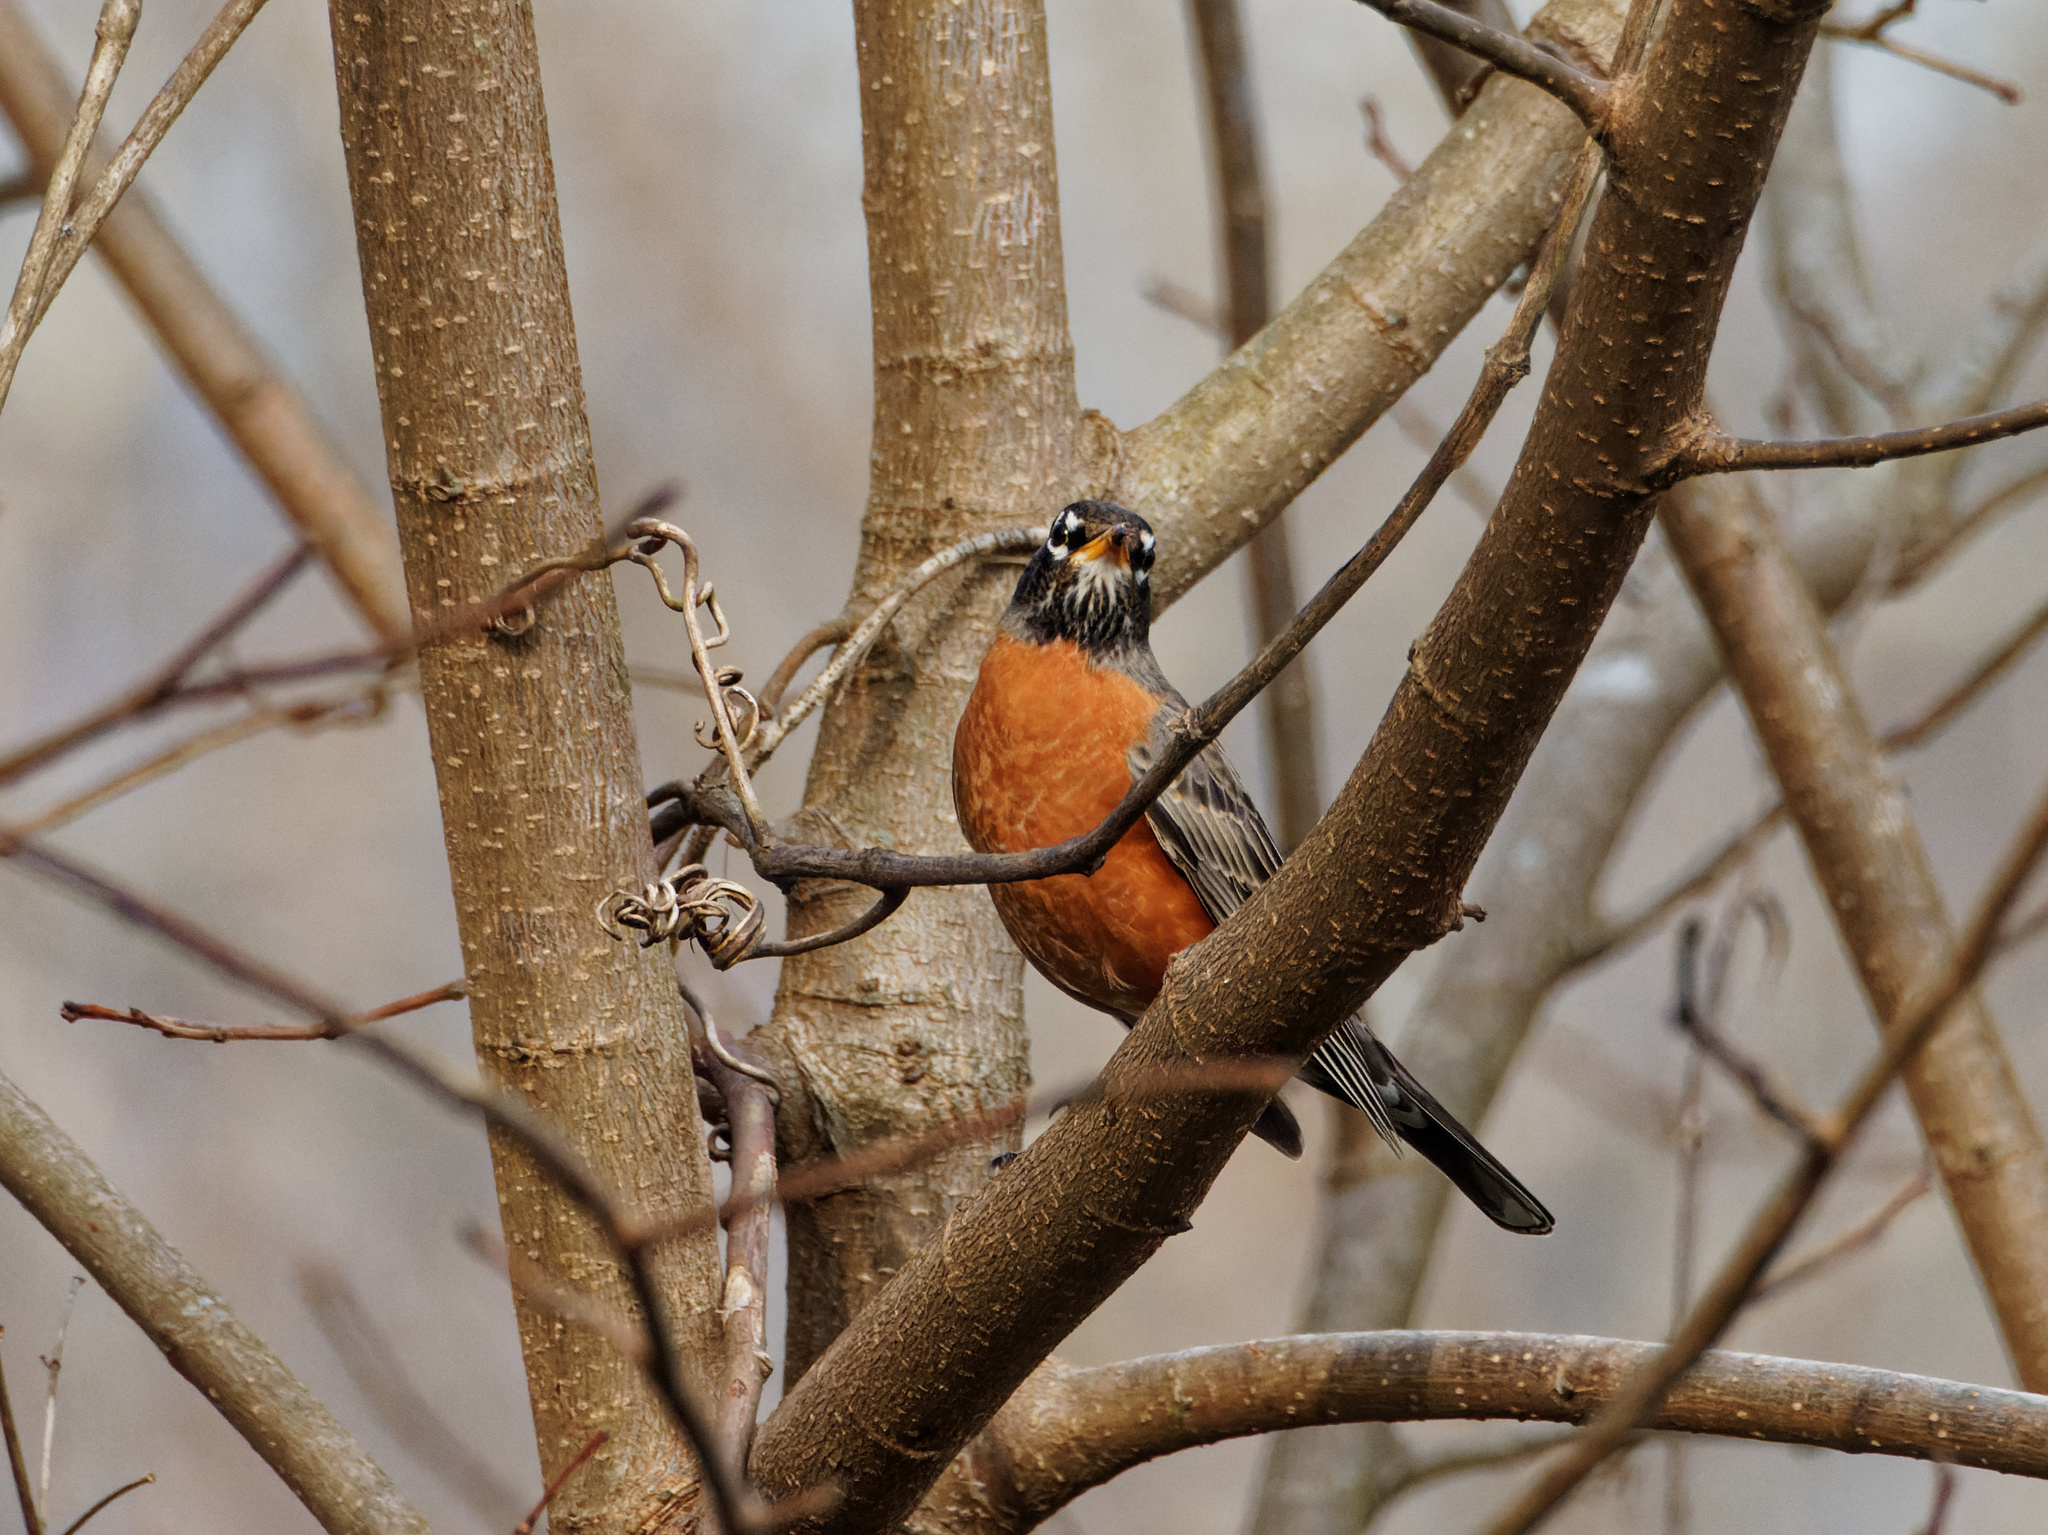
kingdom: Animalia
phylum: Chordata
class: Aves
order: Passeriformes
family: Turdidae
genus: Turdus
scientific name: Turdus migratorius
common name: American robin
